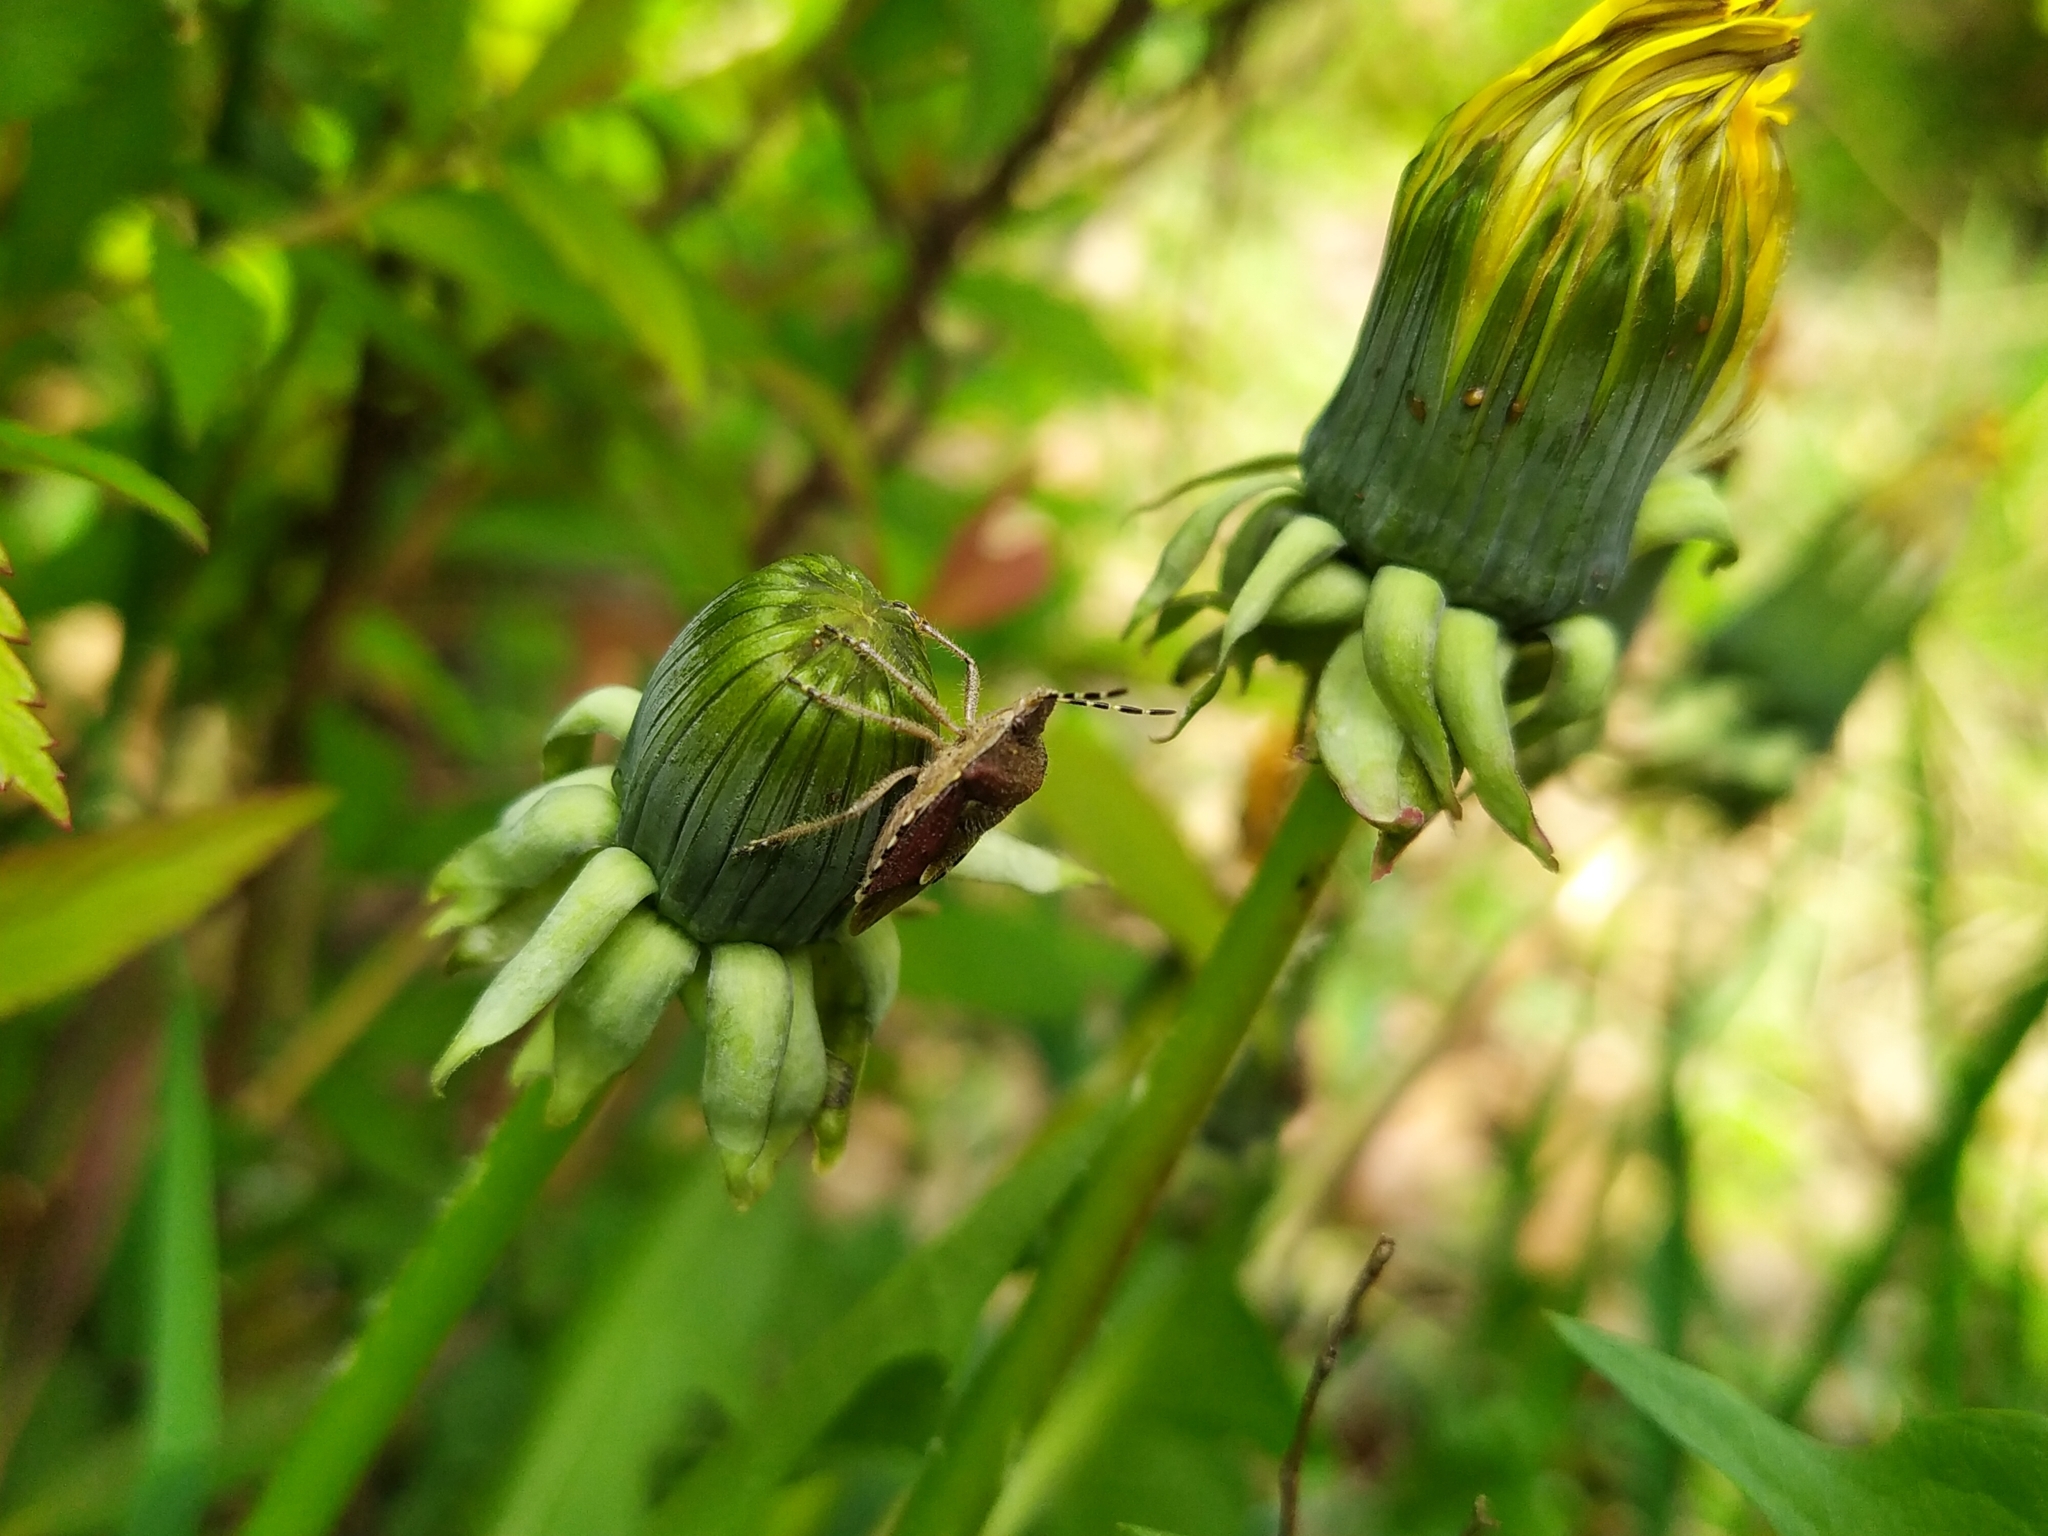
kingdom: Animalia
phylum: Arthropoda
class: Insecta
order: Hemiptera
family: Pentatomidae
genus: Dolycoris
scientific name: Dolycoris baccarum
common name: Sloe bug
